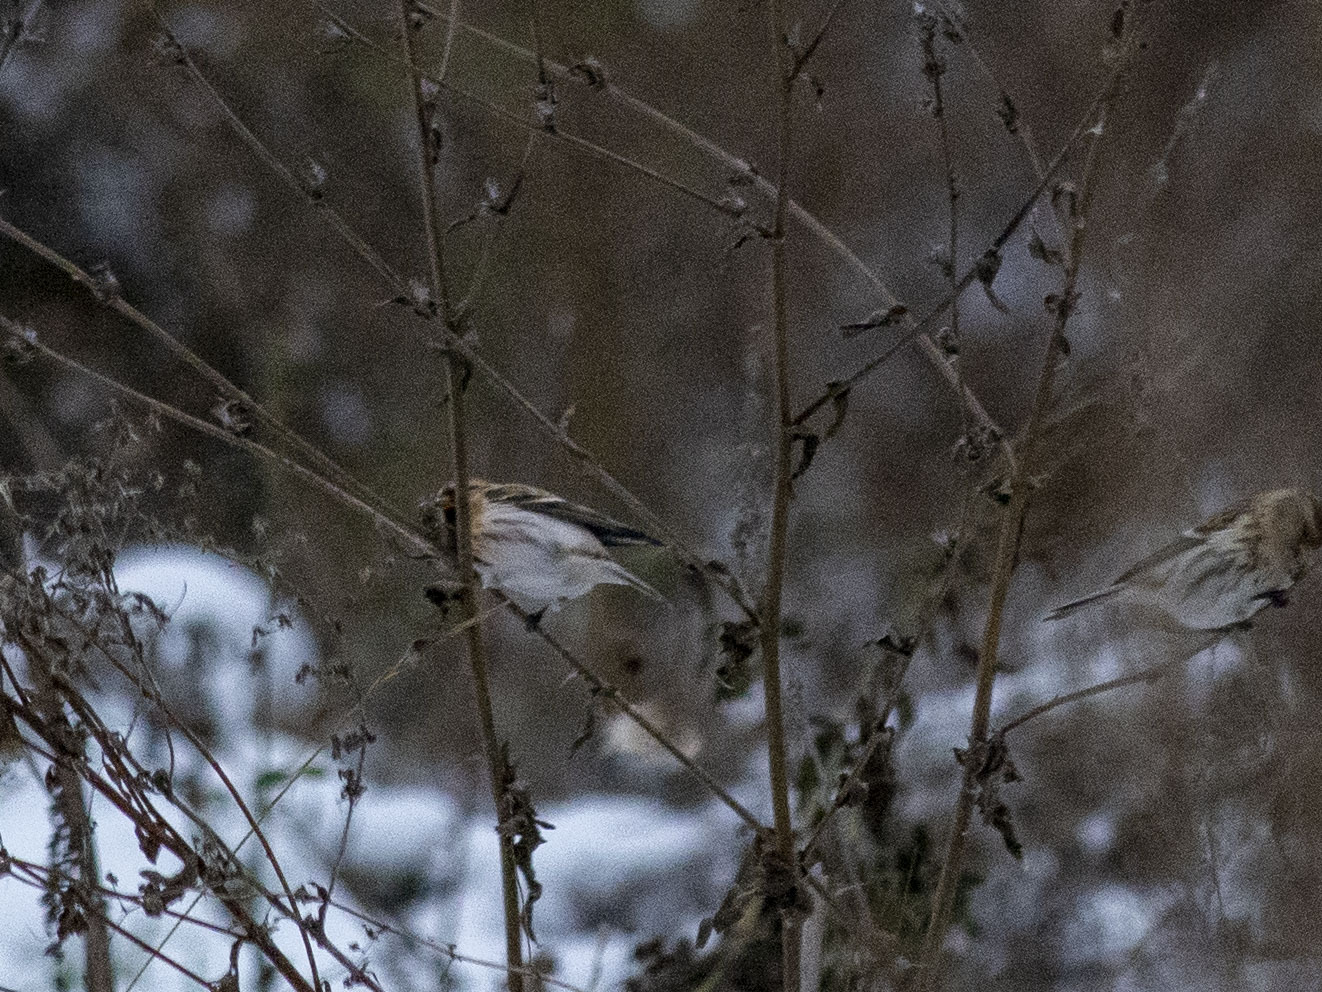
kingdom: Animalia
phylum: Chordata
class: Aves
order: Passeriformes
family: Fringillidae
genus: Acanthis
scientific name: Acanthis hornemanni
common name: Arctic redpoll
